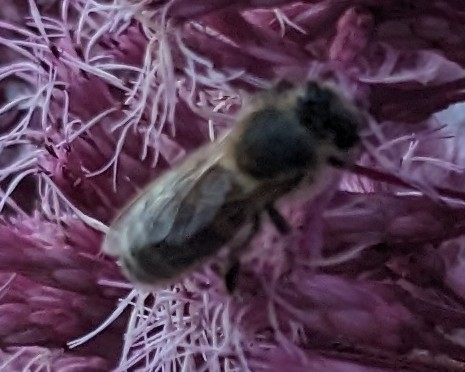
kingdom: Animalia
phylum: Arthropoda
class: Insecta
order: Hymenoptera
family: Apidae
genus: Apis
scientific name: Apis mellifera
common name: Honey bee
